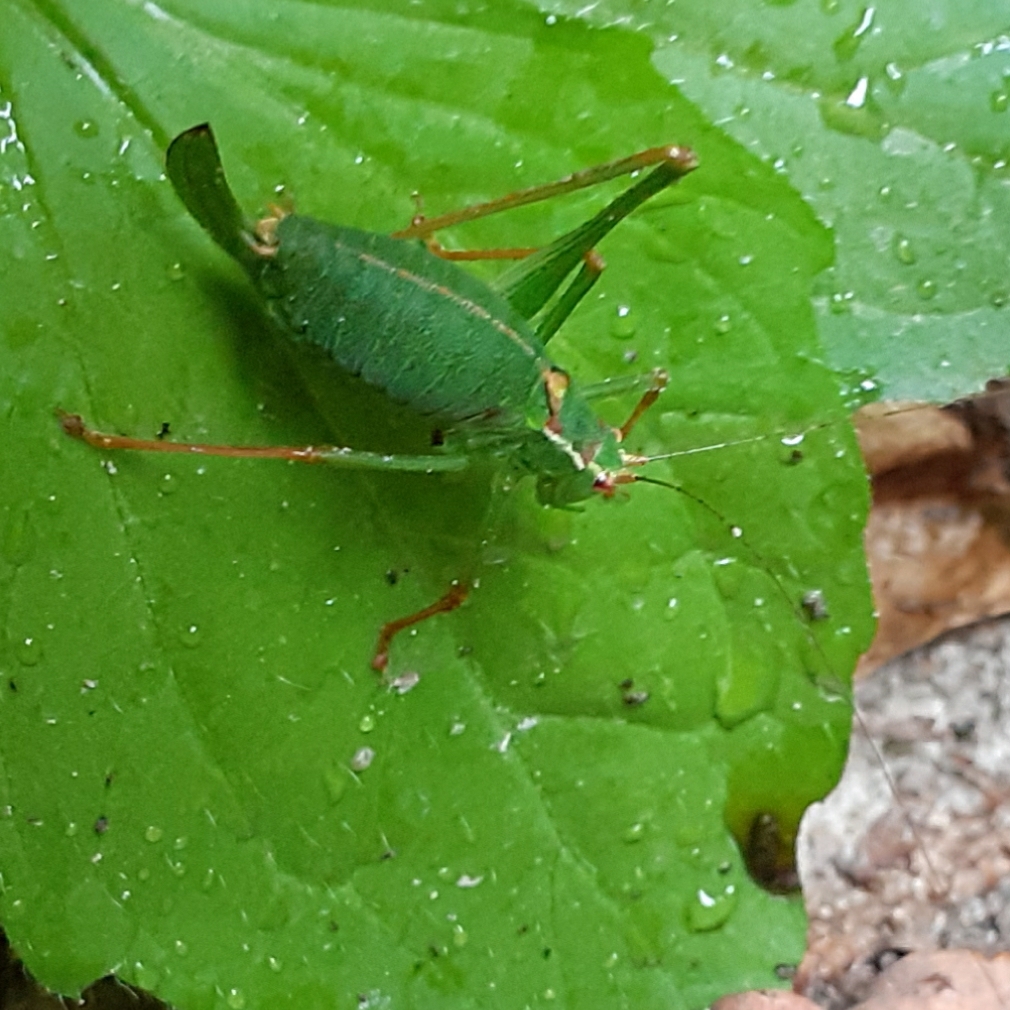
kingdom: Animalia
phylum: Arthropoda
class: Insecta
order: Orthoptera
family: Tettigoniidae
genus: Leptophyes
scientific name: Leptophyes punctatissima
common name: Speckled bush-cricket
